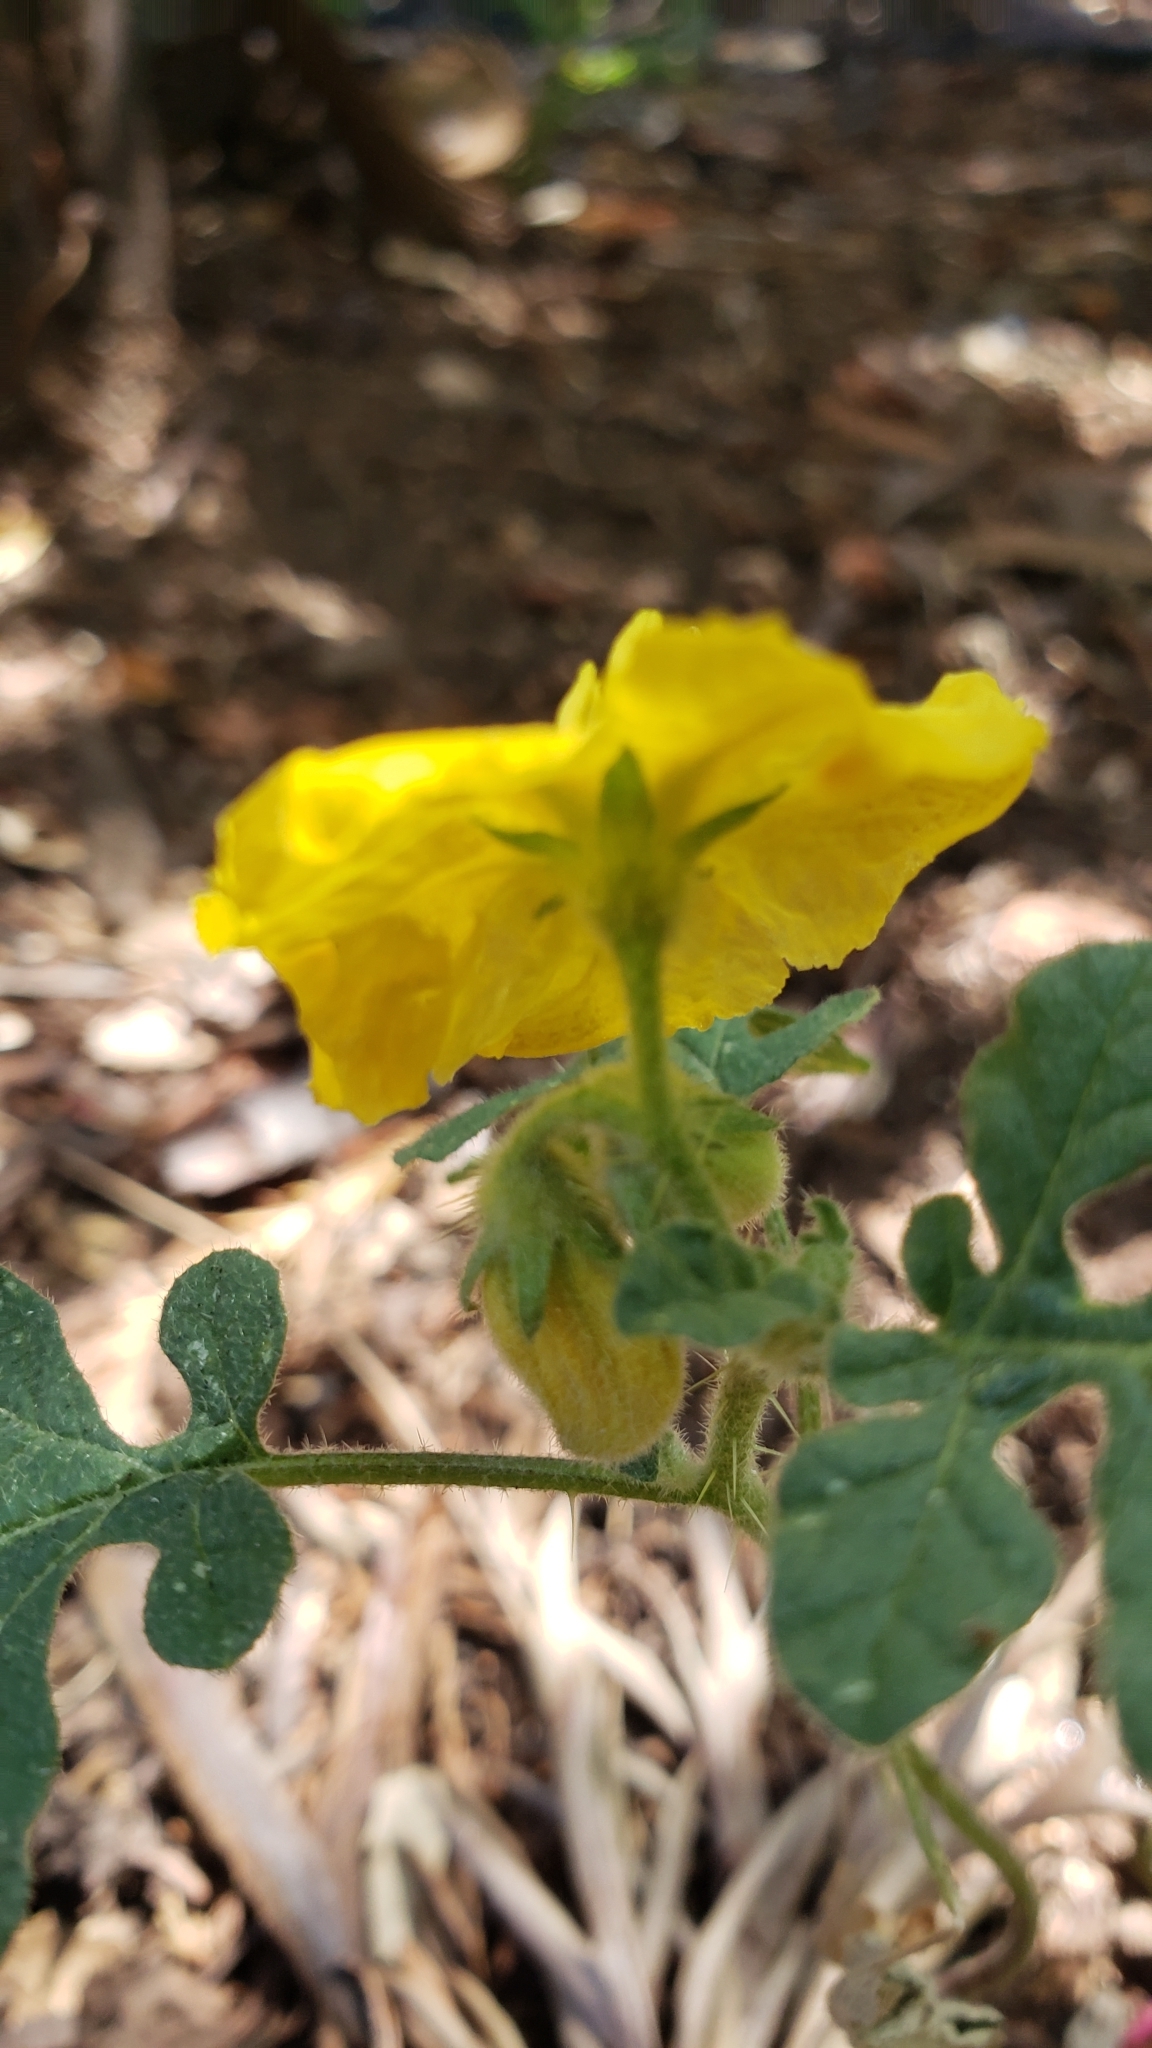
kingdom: Plantae
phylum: Tracheophyta
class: Magnoliopsida
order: Solanales
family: Solanaceae
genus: Solanum
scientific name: Solanum angustifolium
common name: Buffalobur nightshade
